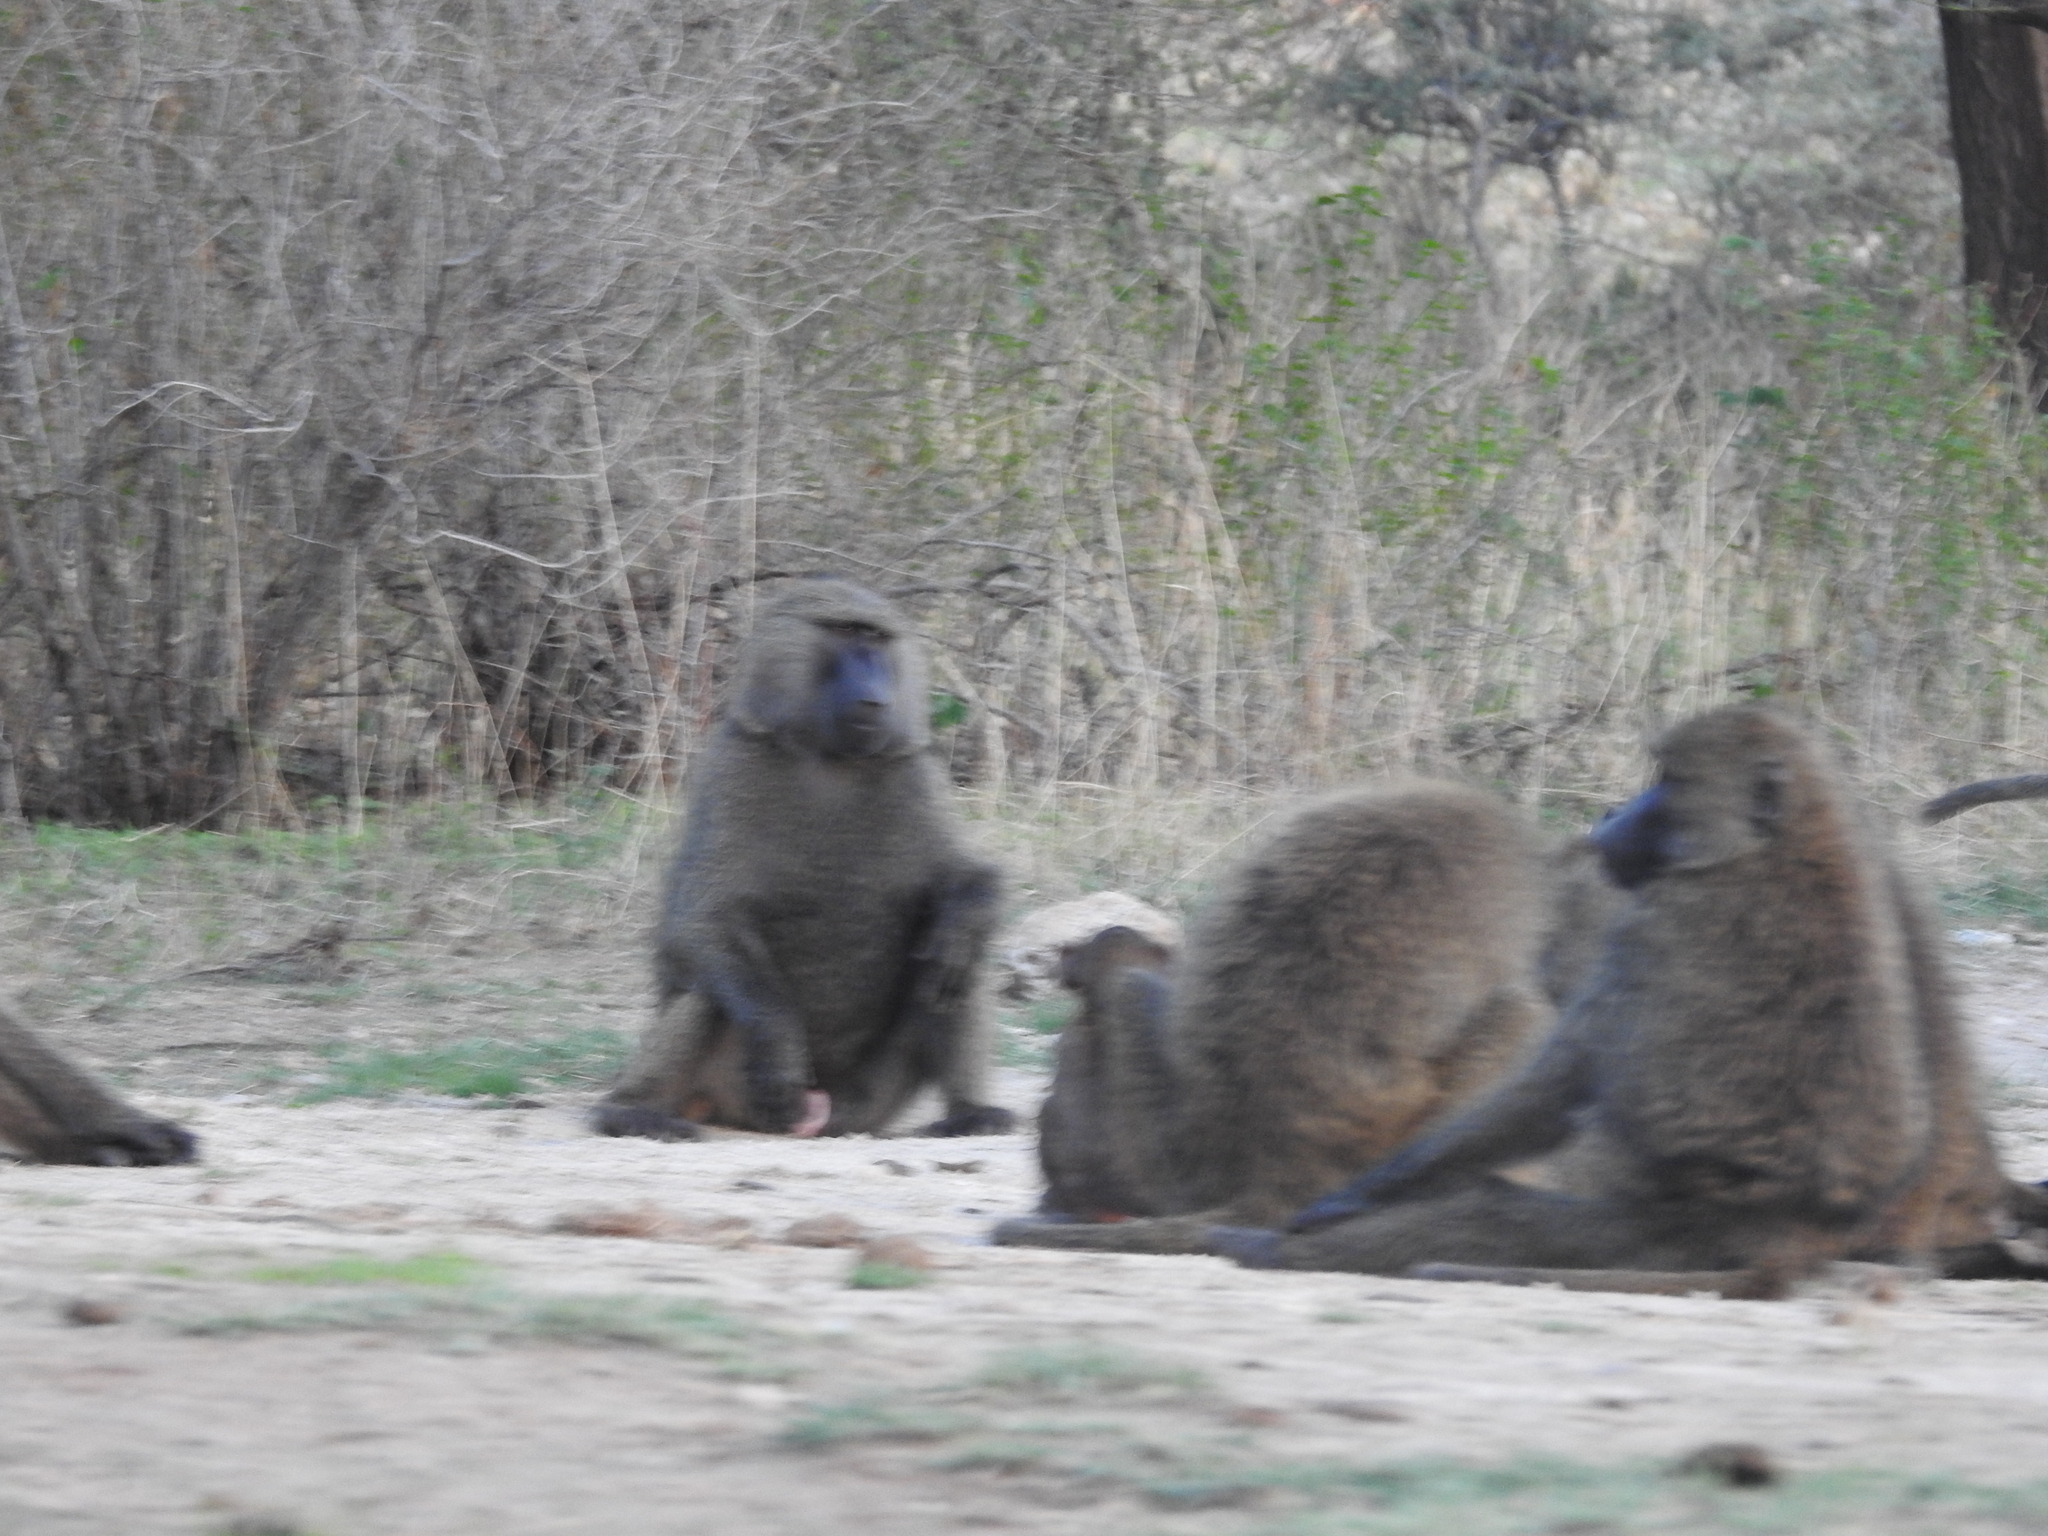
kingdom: Animalia
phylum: Chordata
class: Mammalia
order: Primates
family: Cercopithecidae
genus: Papio
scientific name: Papio anubis
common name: Olive baboon
